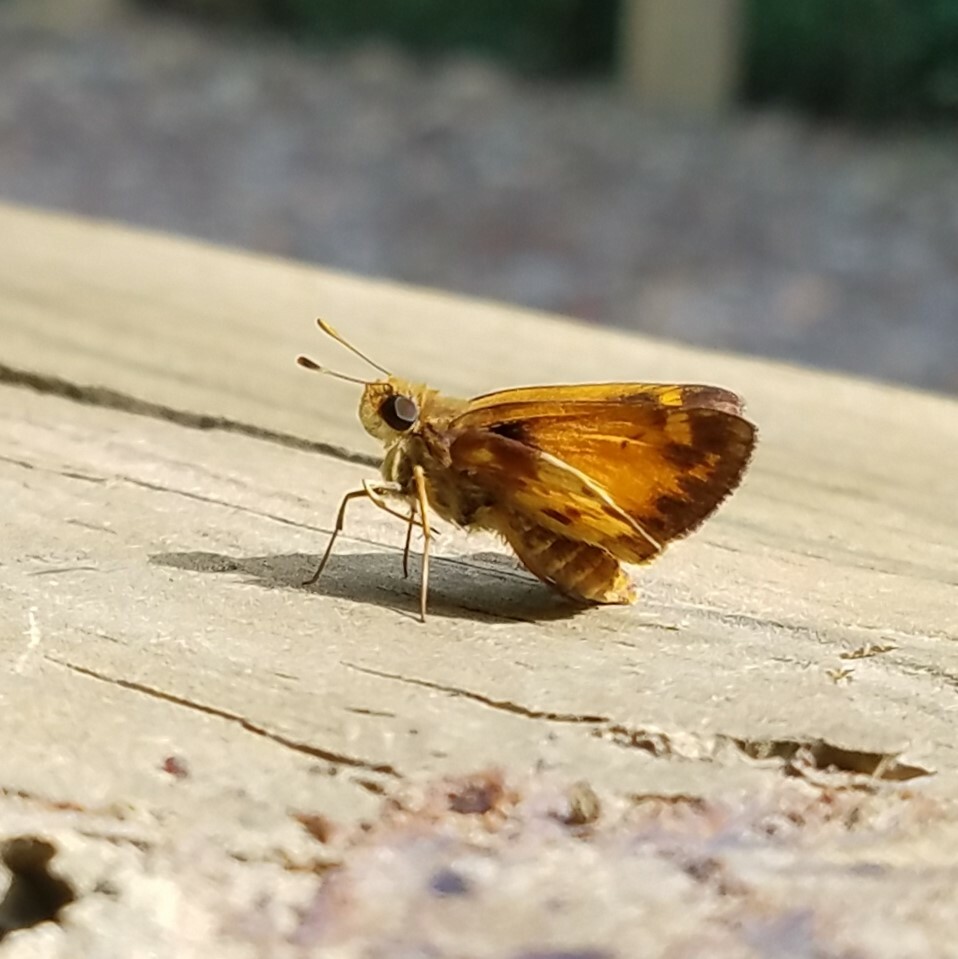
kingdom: Animalia
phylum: Arthropoda
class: Insecta
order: Lepidoptera
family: Hesperiidae
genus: Lon
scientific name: Lon zabulon
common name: Zabulon skipper
